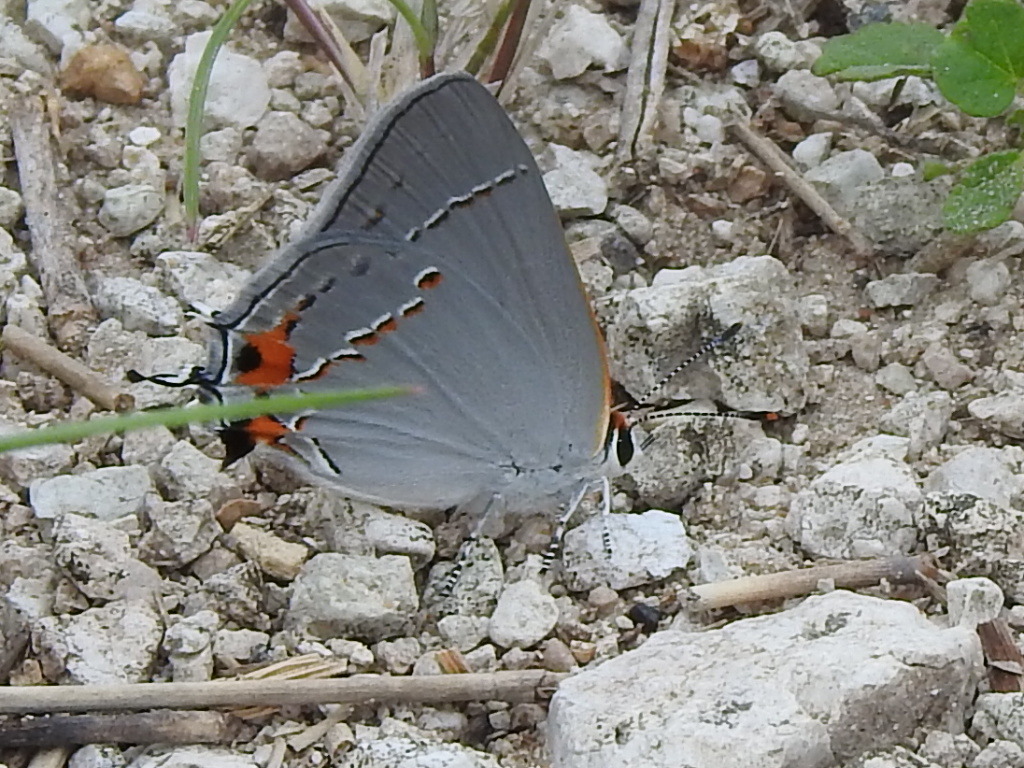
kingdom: Animalia
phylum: Arthropoda
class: Insecta
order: Lepidoptera
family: Lycaenidae
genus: Strymon
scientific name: Strymon melinus
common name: Gray hairstreak
